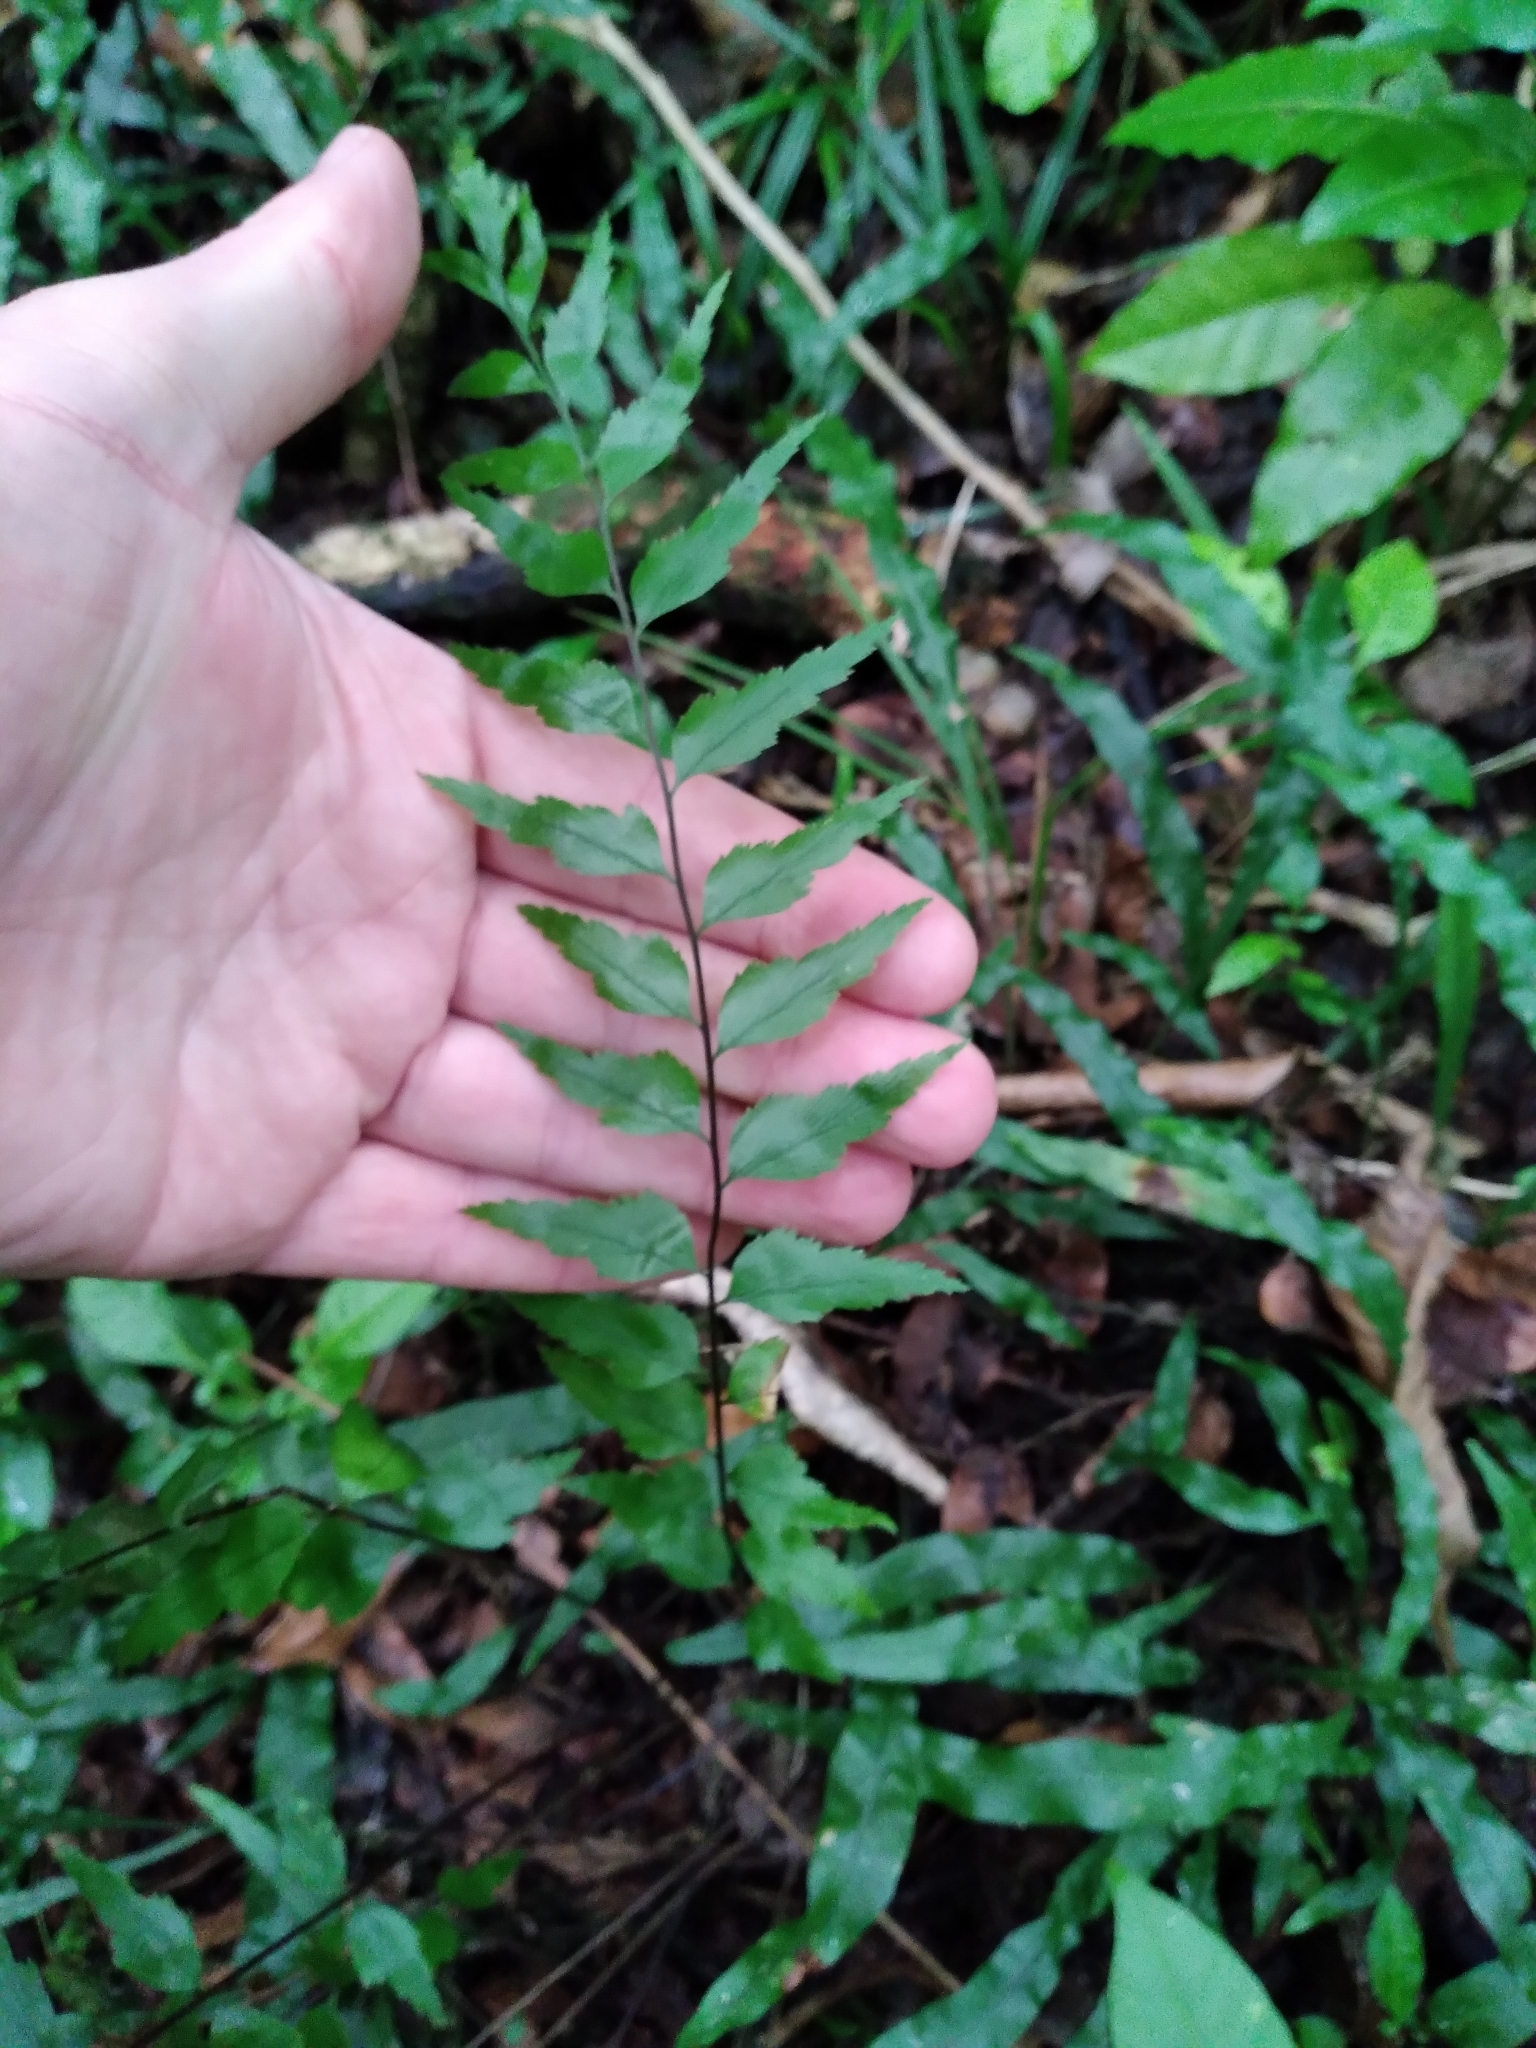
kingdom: Plantae
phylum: Tracheophyta
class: Polypodiopsida
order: Polypodiales
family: Aspleniaceae
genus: Asplenium
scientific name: Asplenium polyodon
